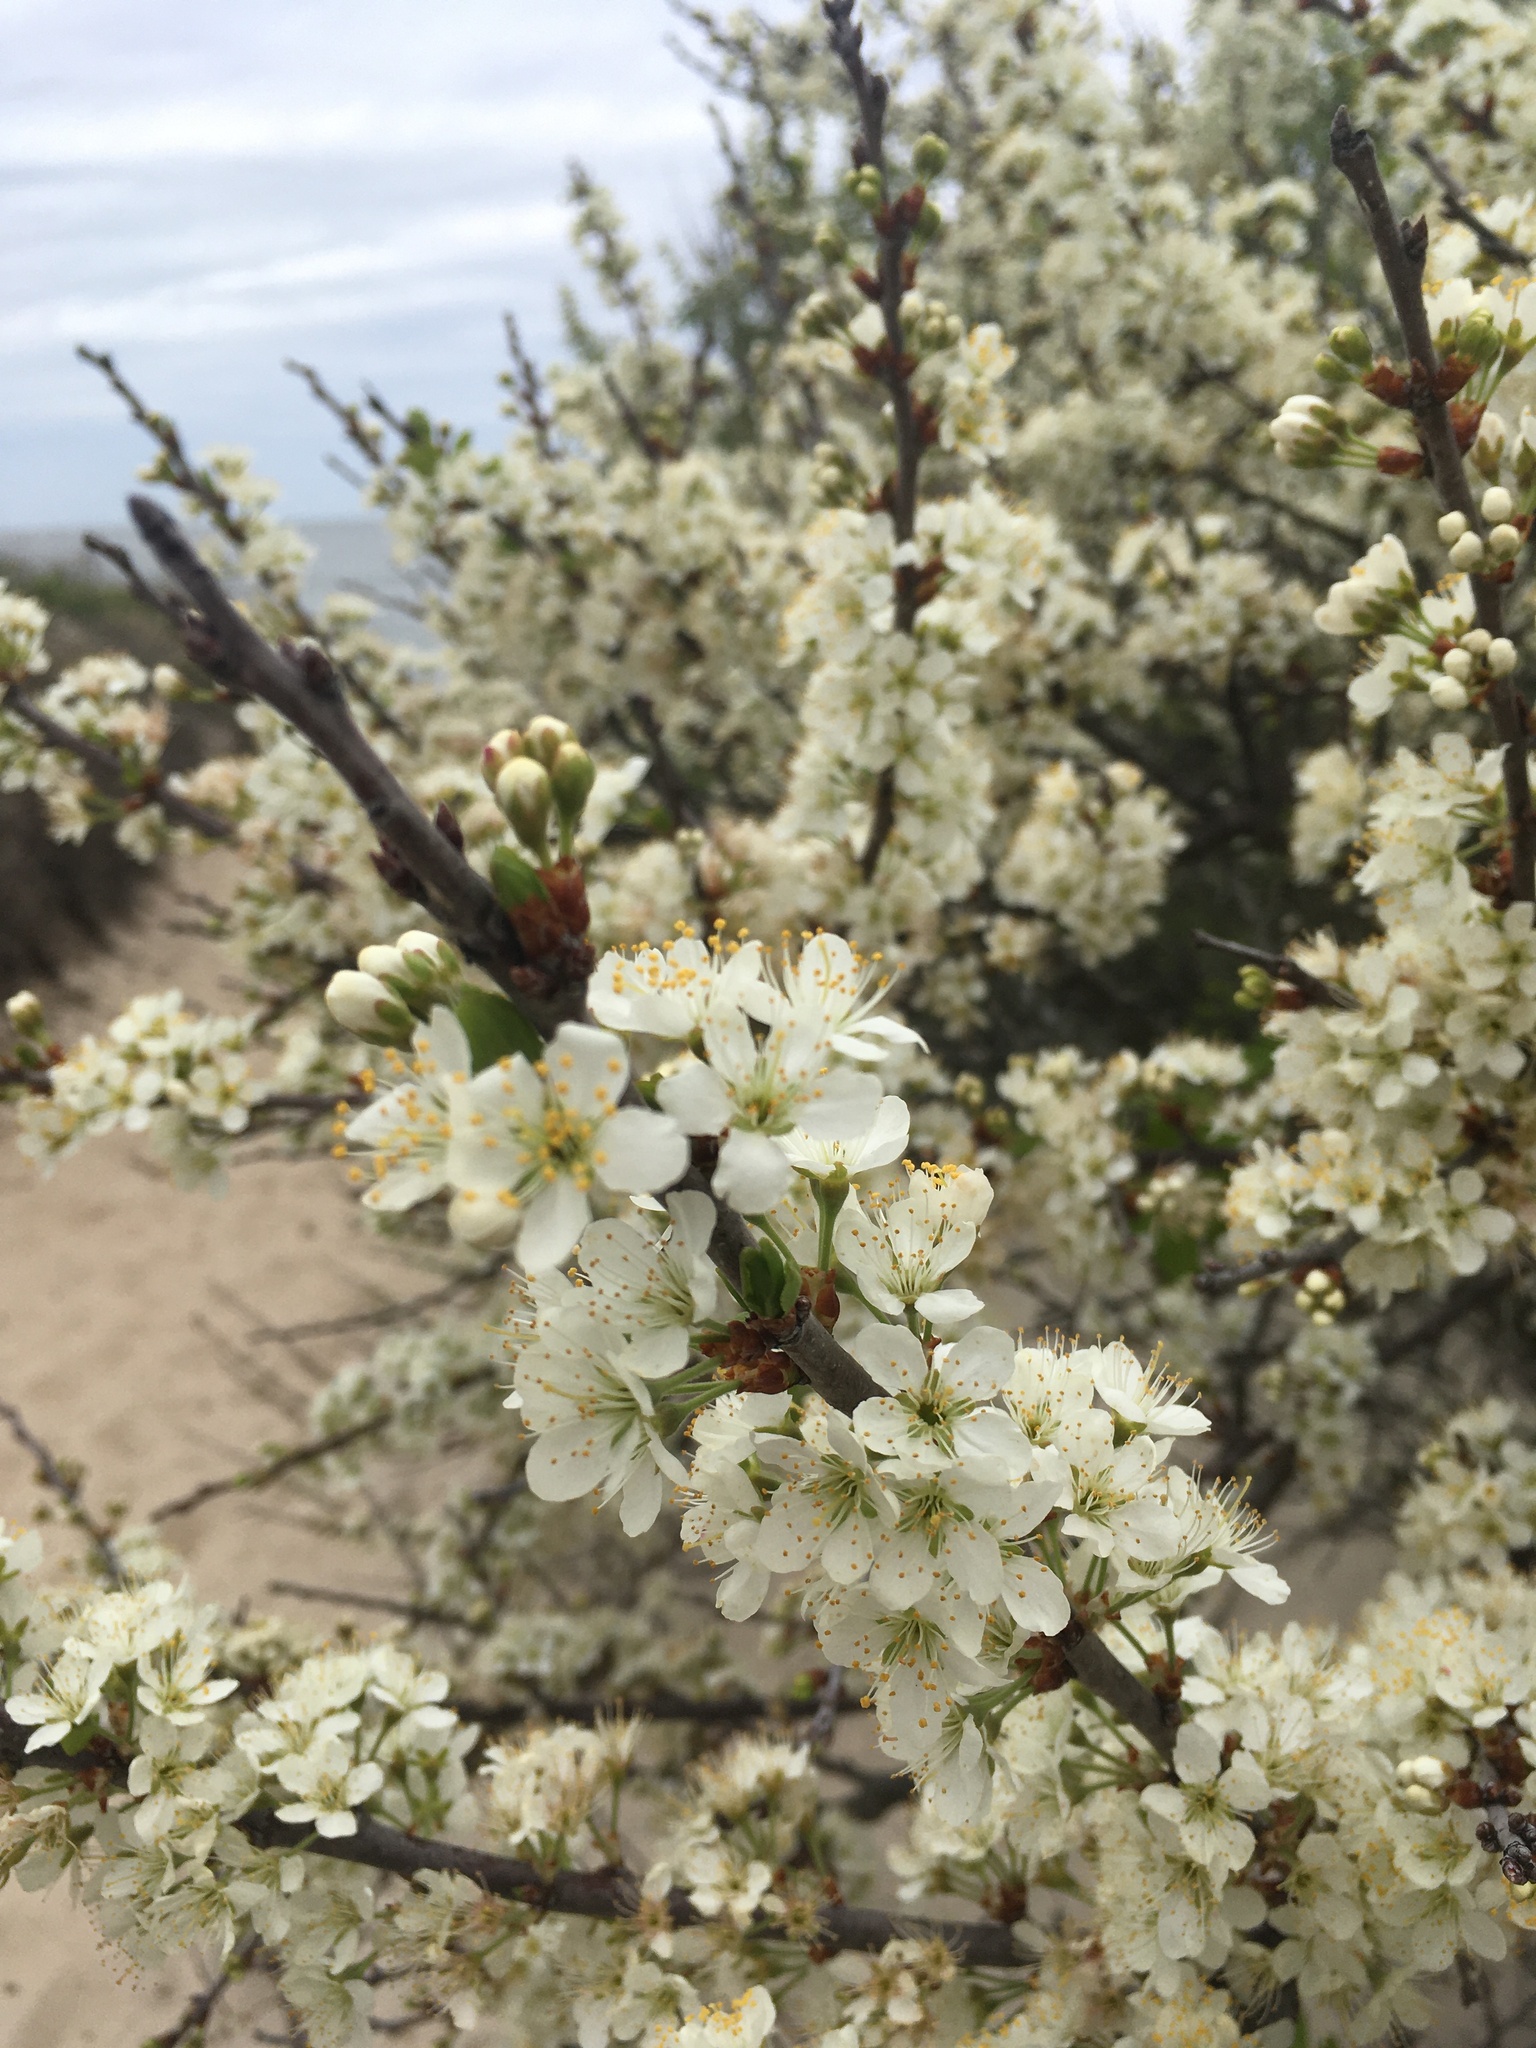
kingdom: Plantae
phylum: Tracheophyta
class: Magnoliopsida
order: Rosales
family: Rosaceae
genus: Prunus
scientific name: Prunus maritima
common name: Beach plum
